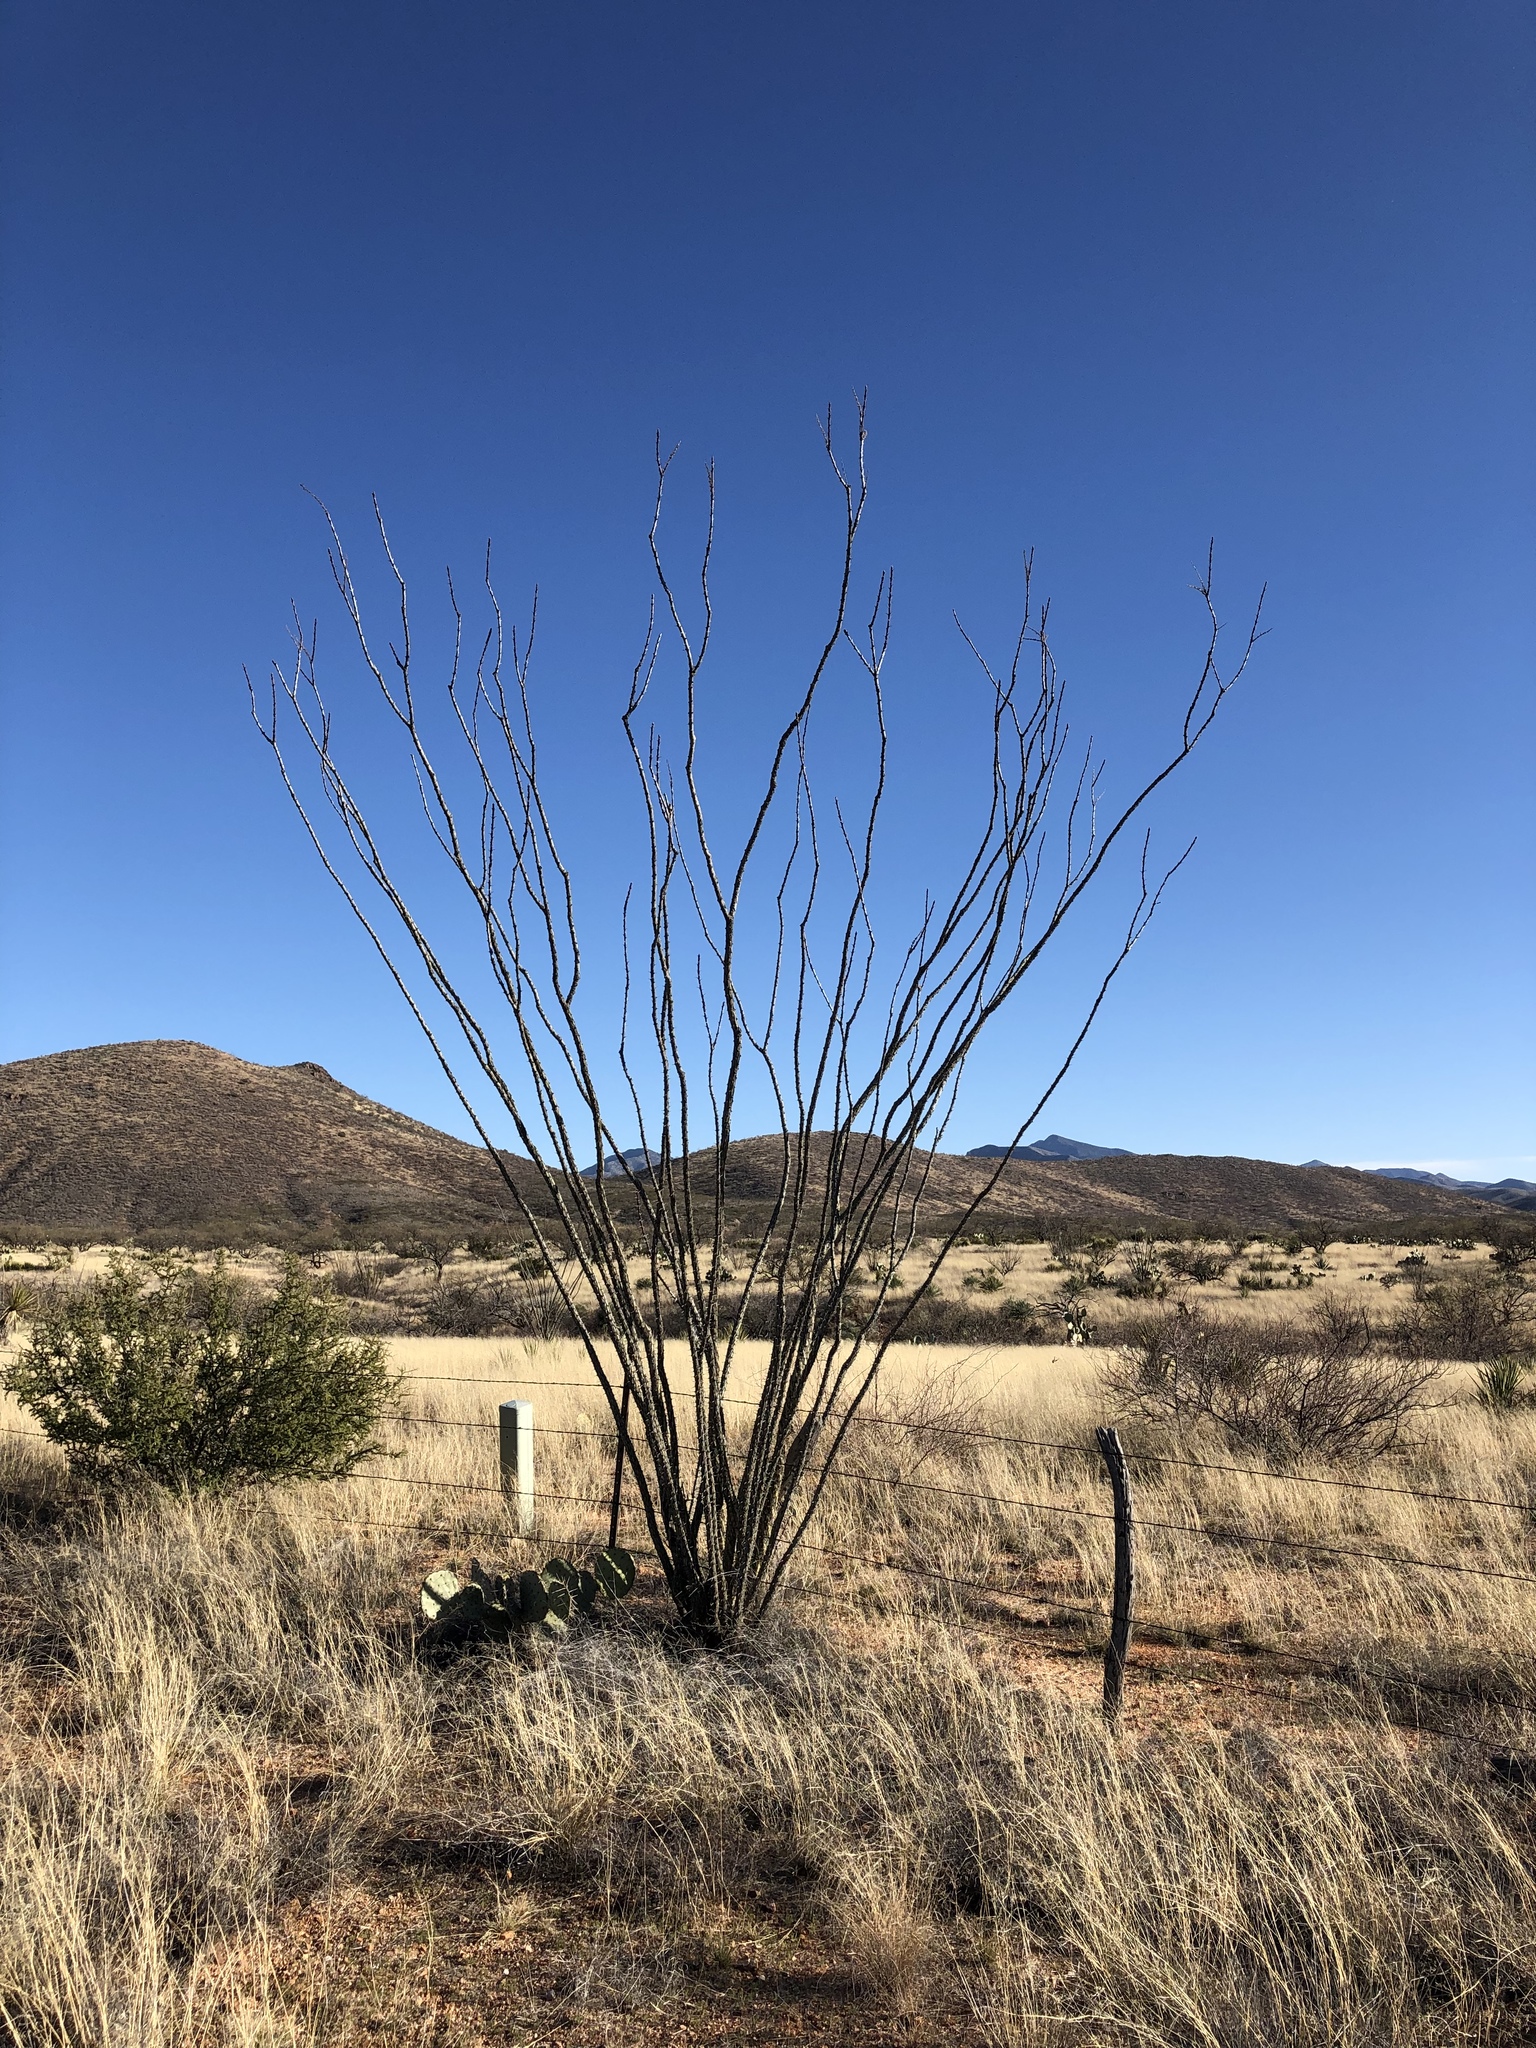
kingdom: Plantae
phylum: Tracheophyta
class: Magnoliopsida
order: Ericales
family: Fouquieriaceae
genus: Fouquieria
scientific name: Fouquieria splendens
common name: Vine-cactus
